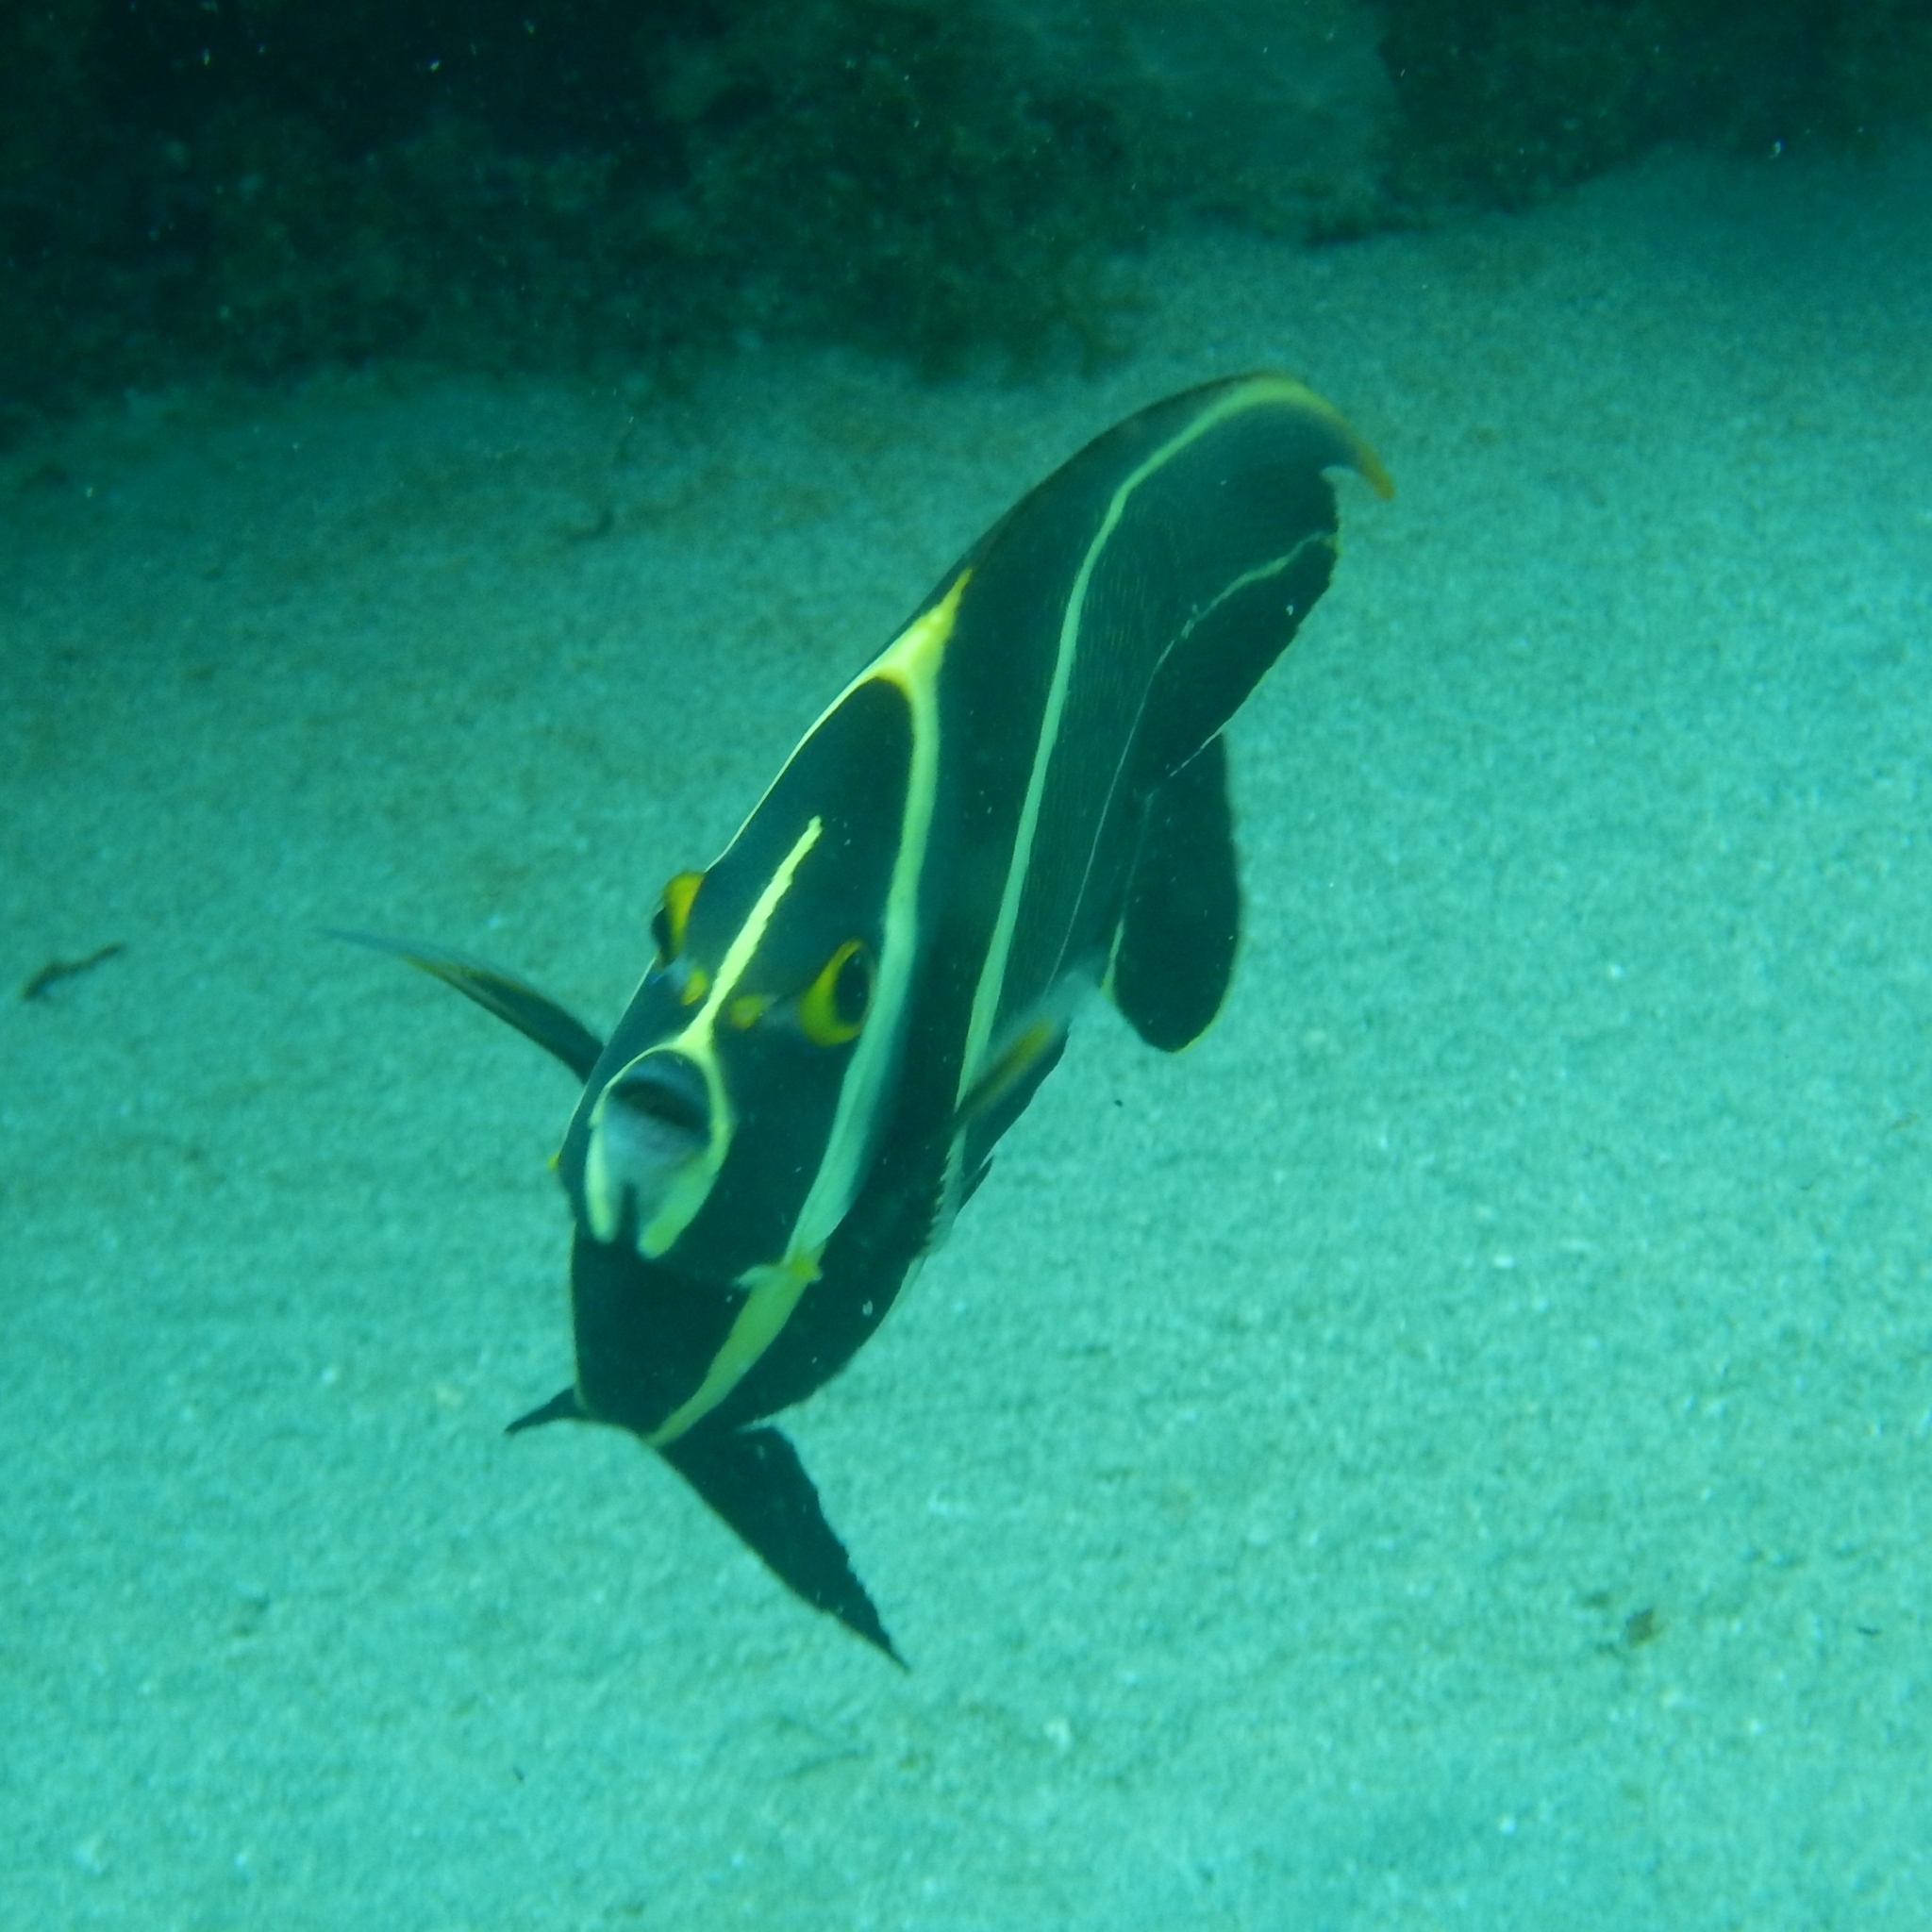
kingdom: Animalia
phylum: Chordata
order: Perciformes
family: Pomacanthidae
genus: Pomacanthus
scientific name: Pomacanthus paru
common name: French angelfish
